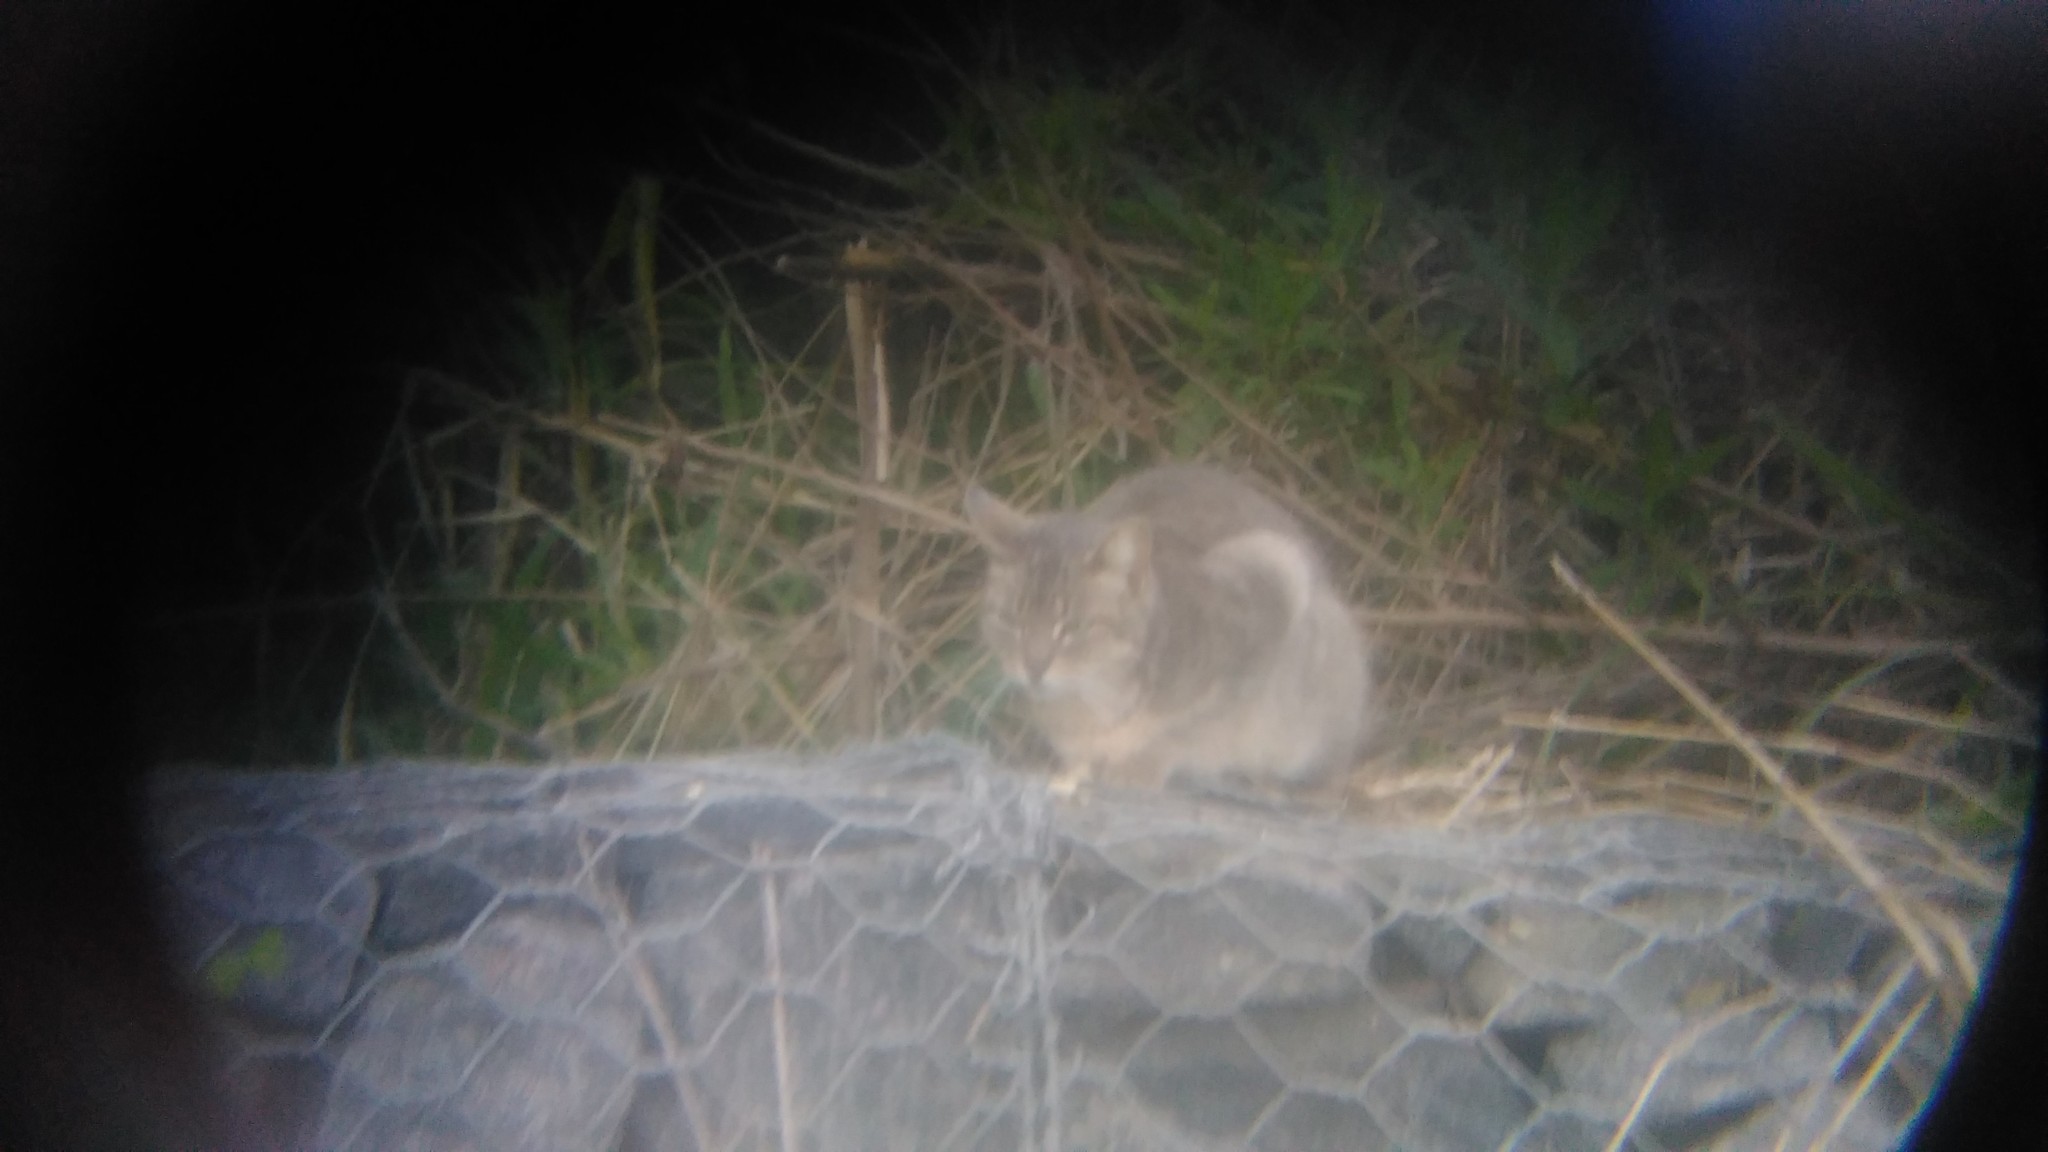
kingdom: Animalia
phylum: Chordata
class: Mammalia
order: Carnivora
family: Felidae
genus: Felis
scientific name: Felis catus
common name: Domestic cat
